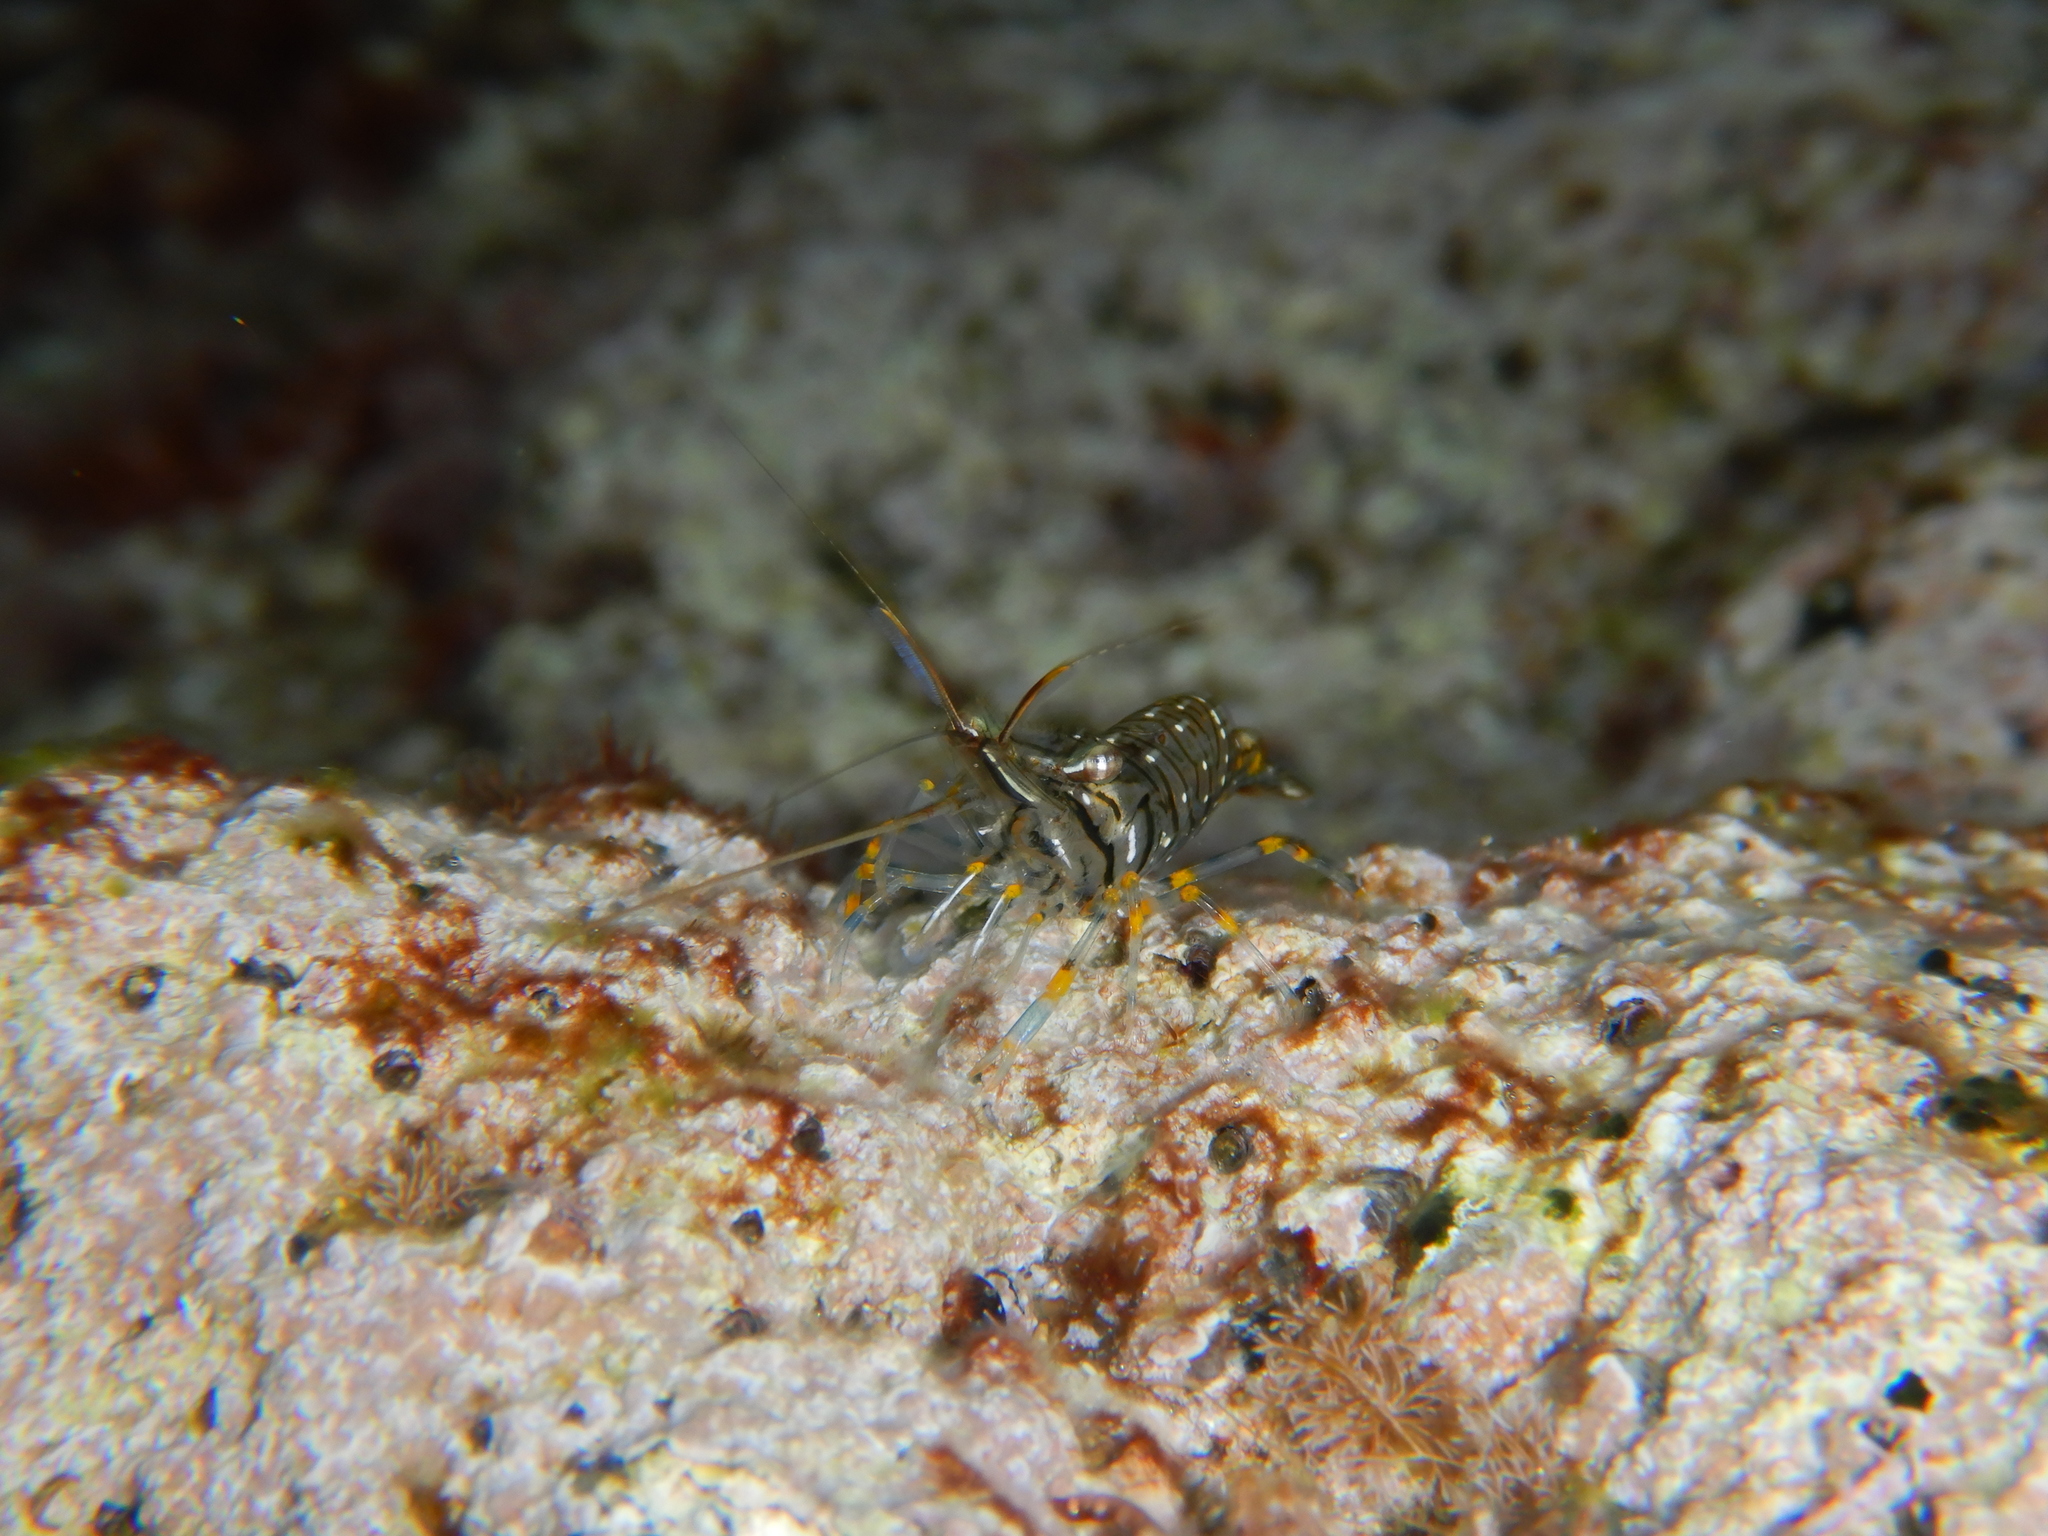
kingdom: Animalia
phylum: Arthropoda
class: Malacostraca
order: Decapoda
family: Palaemonidae
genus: Palaemon
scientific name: Palaemon elegans
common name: Grass prawm
